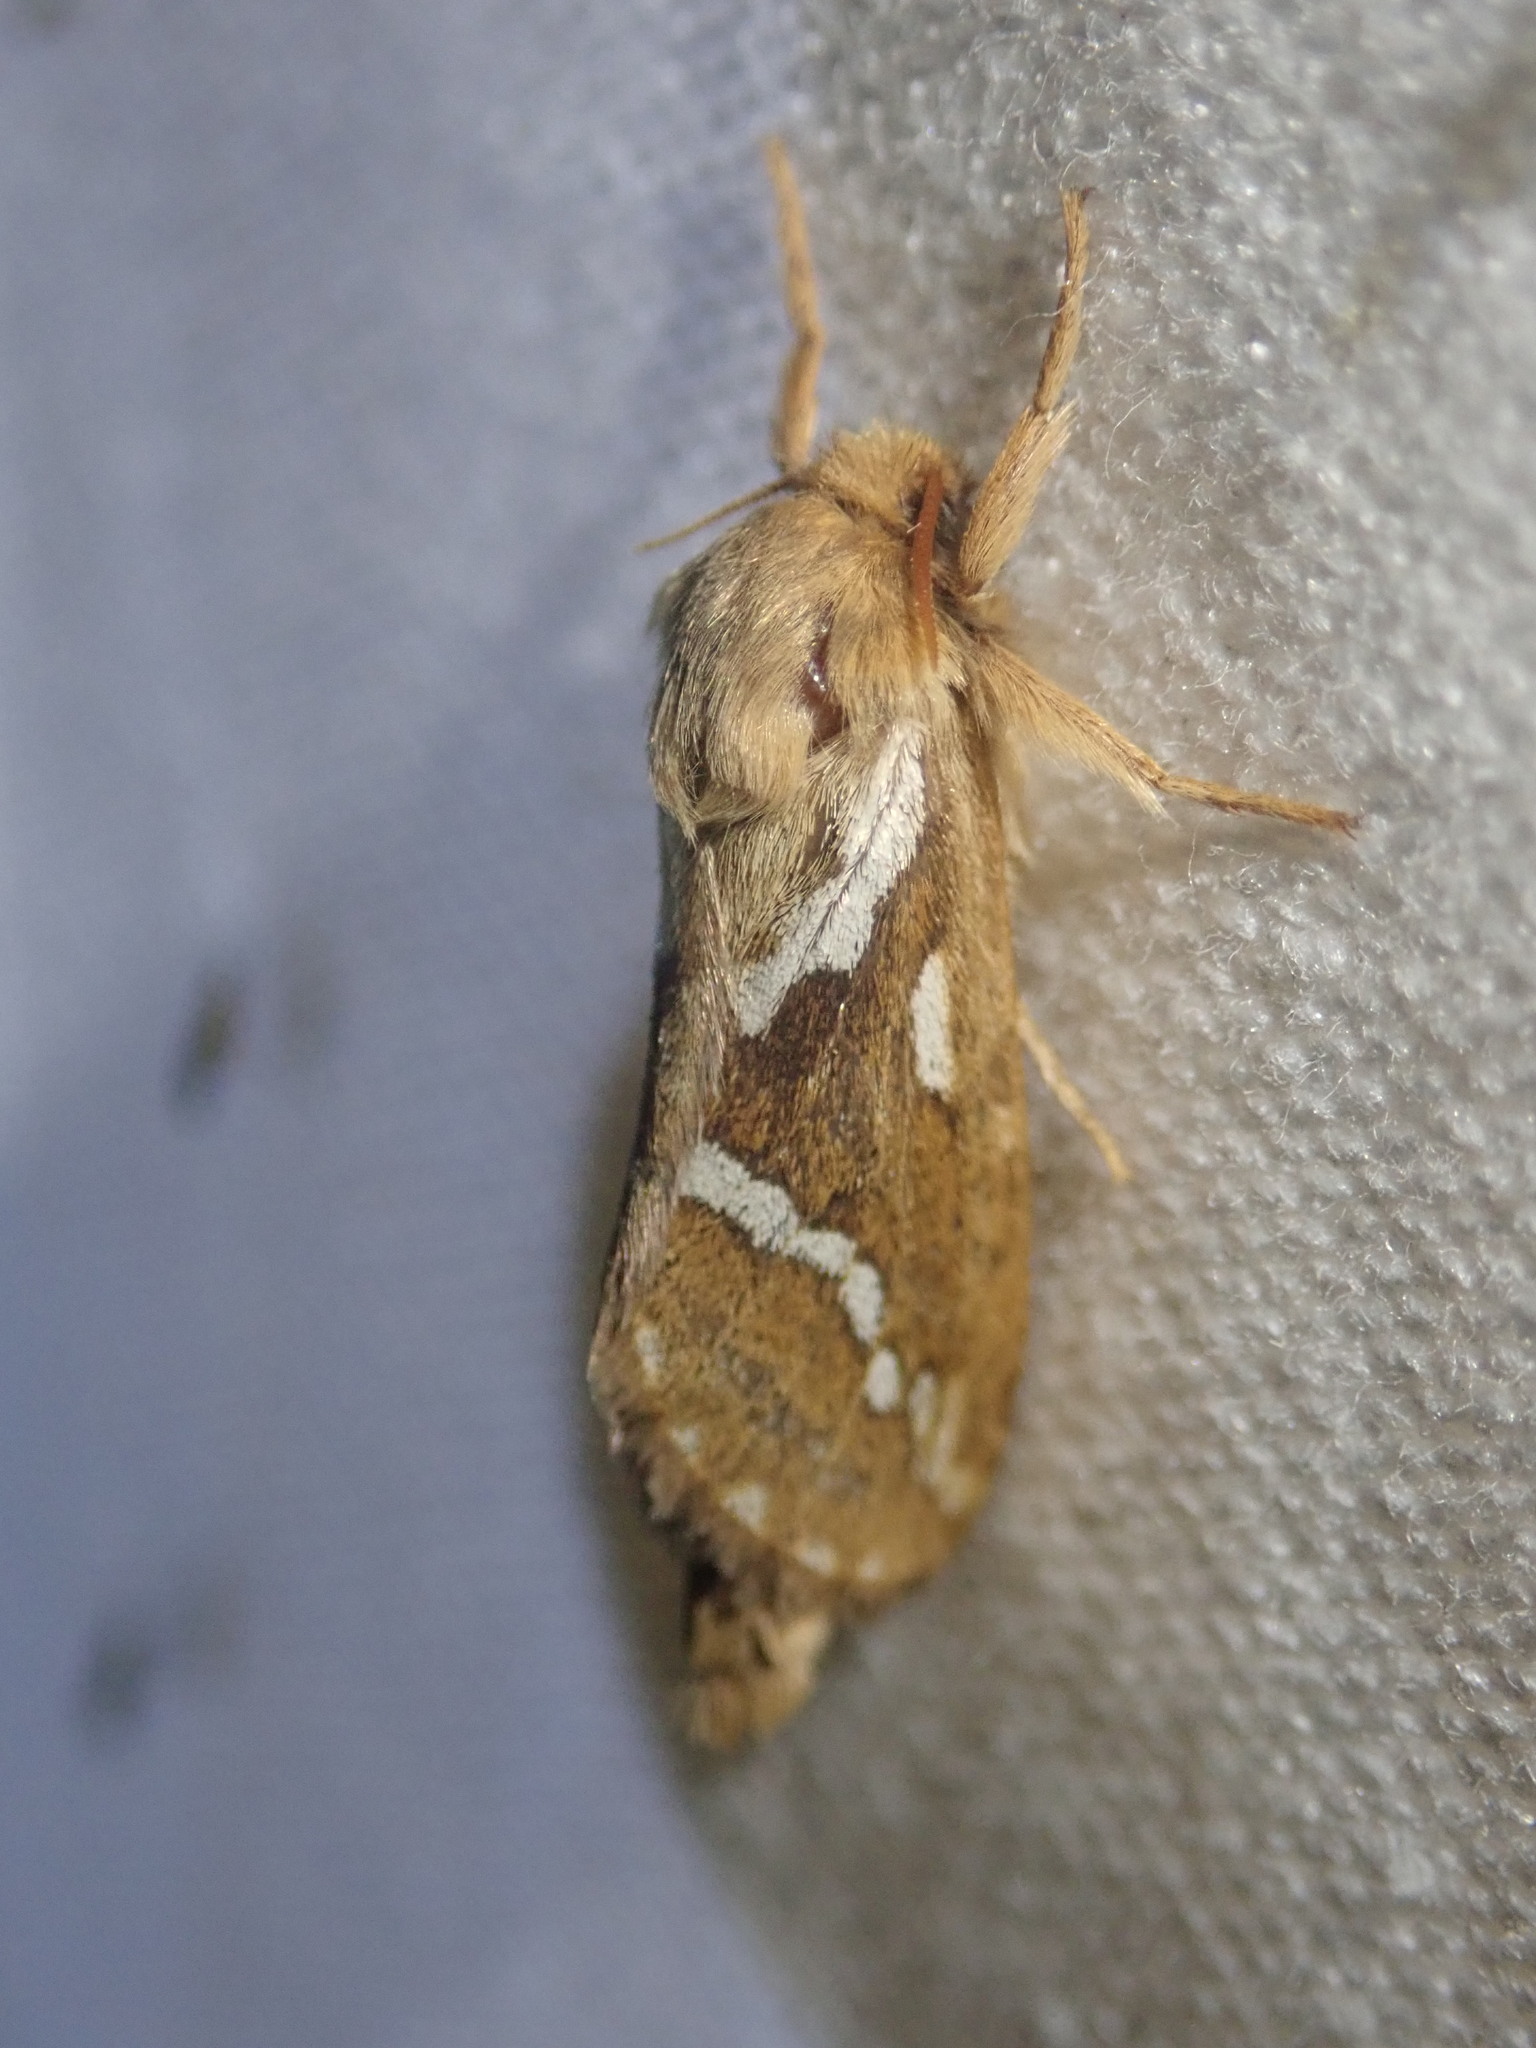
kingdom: Animalia
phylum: Arthropoda
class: Insecta
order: Lepidoptera
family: Hepialidae
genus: Korscheltellus
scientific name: Korscheltellus lupulina
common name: Common swift
